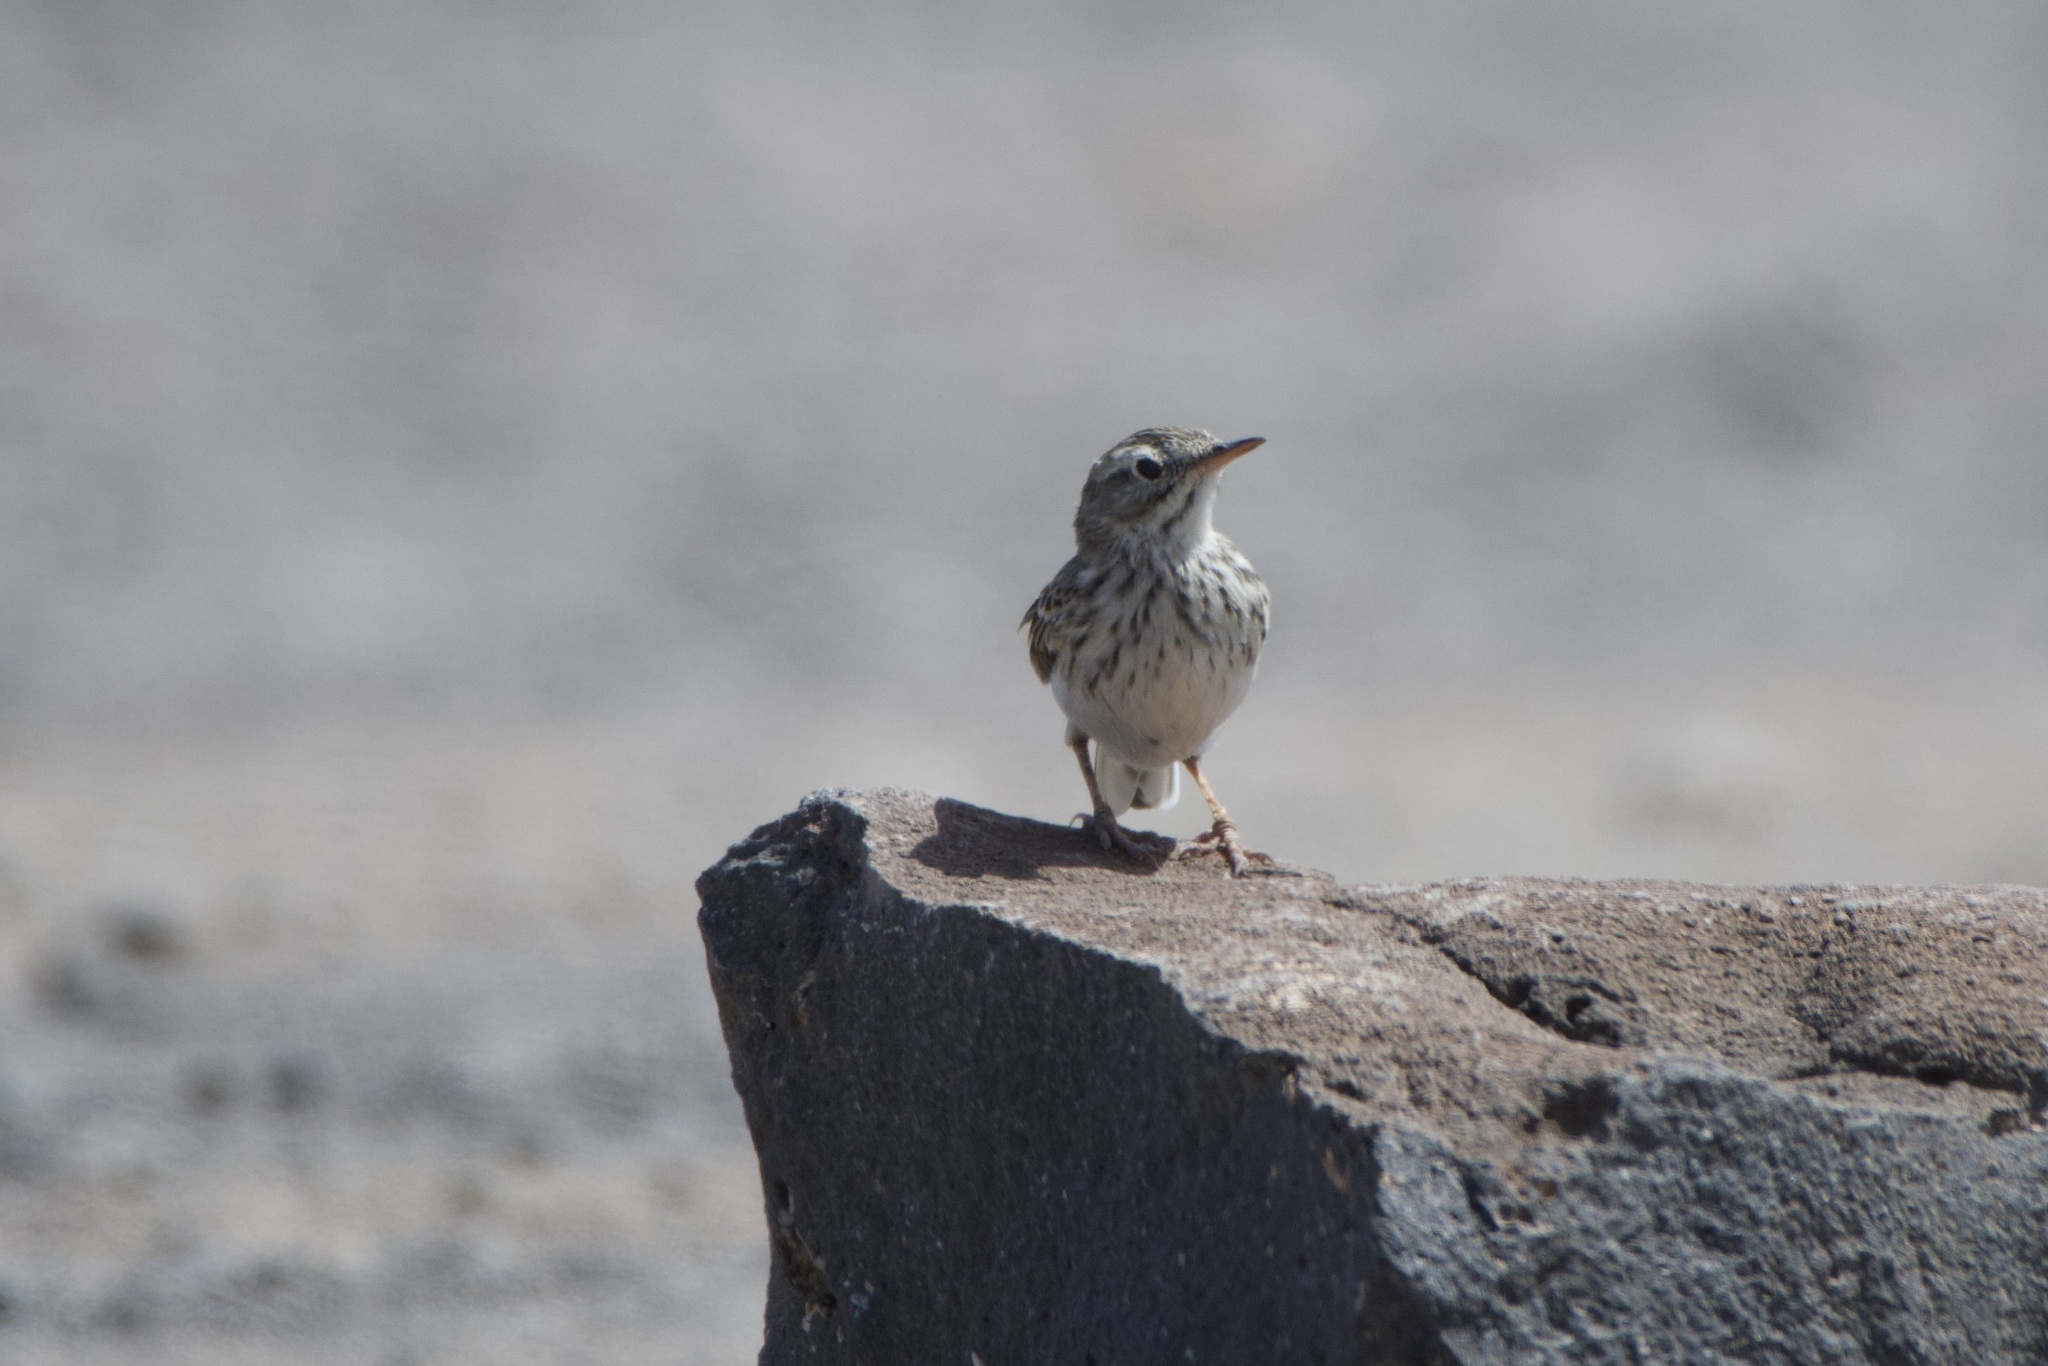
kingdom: Animalia
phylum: Chordata
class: Aves
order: Passeriformes
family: Motacillidae
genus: Anthus
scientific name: Anthus berthelotii
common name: Berthelot's pipit
